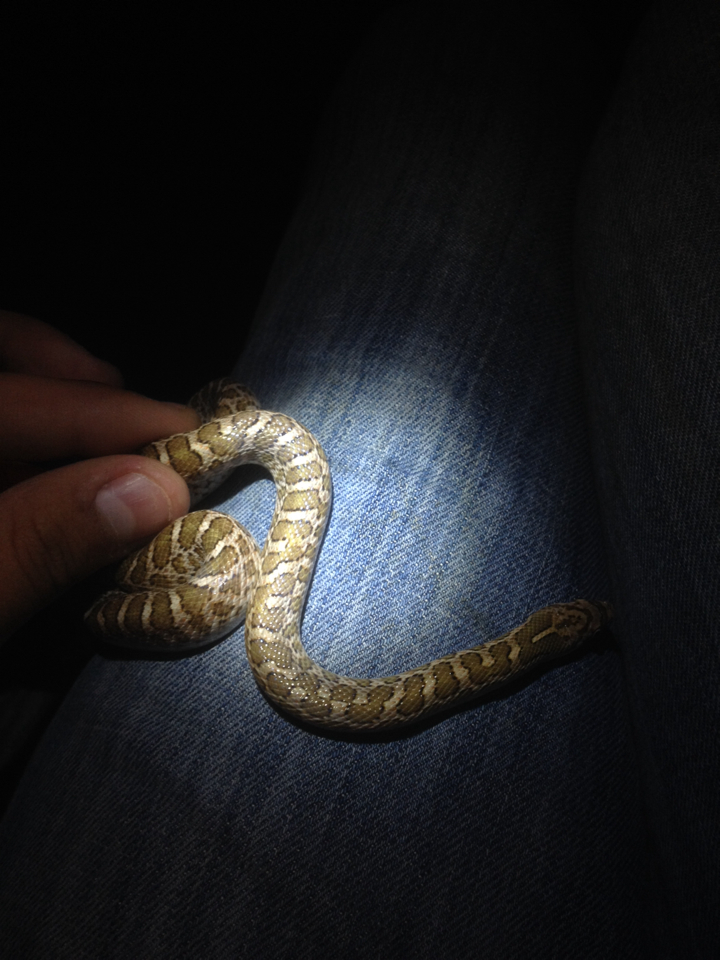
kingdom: Animalia
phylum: Chordata
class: Squamata
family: Colubridae
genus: Arizona
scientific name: Arizona elegans
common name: Glossy snake
